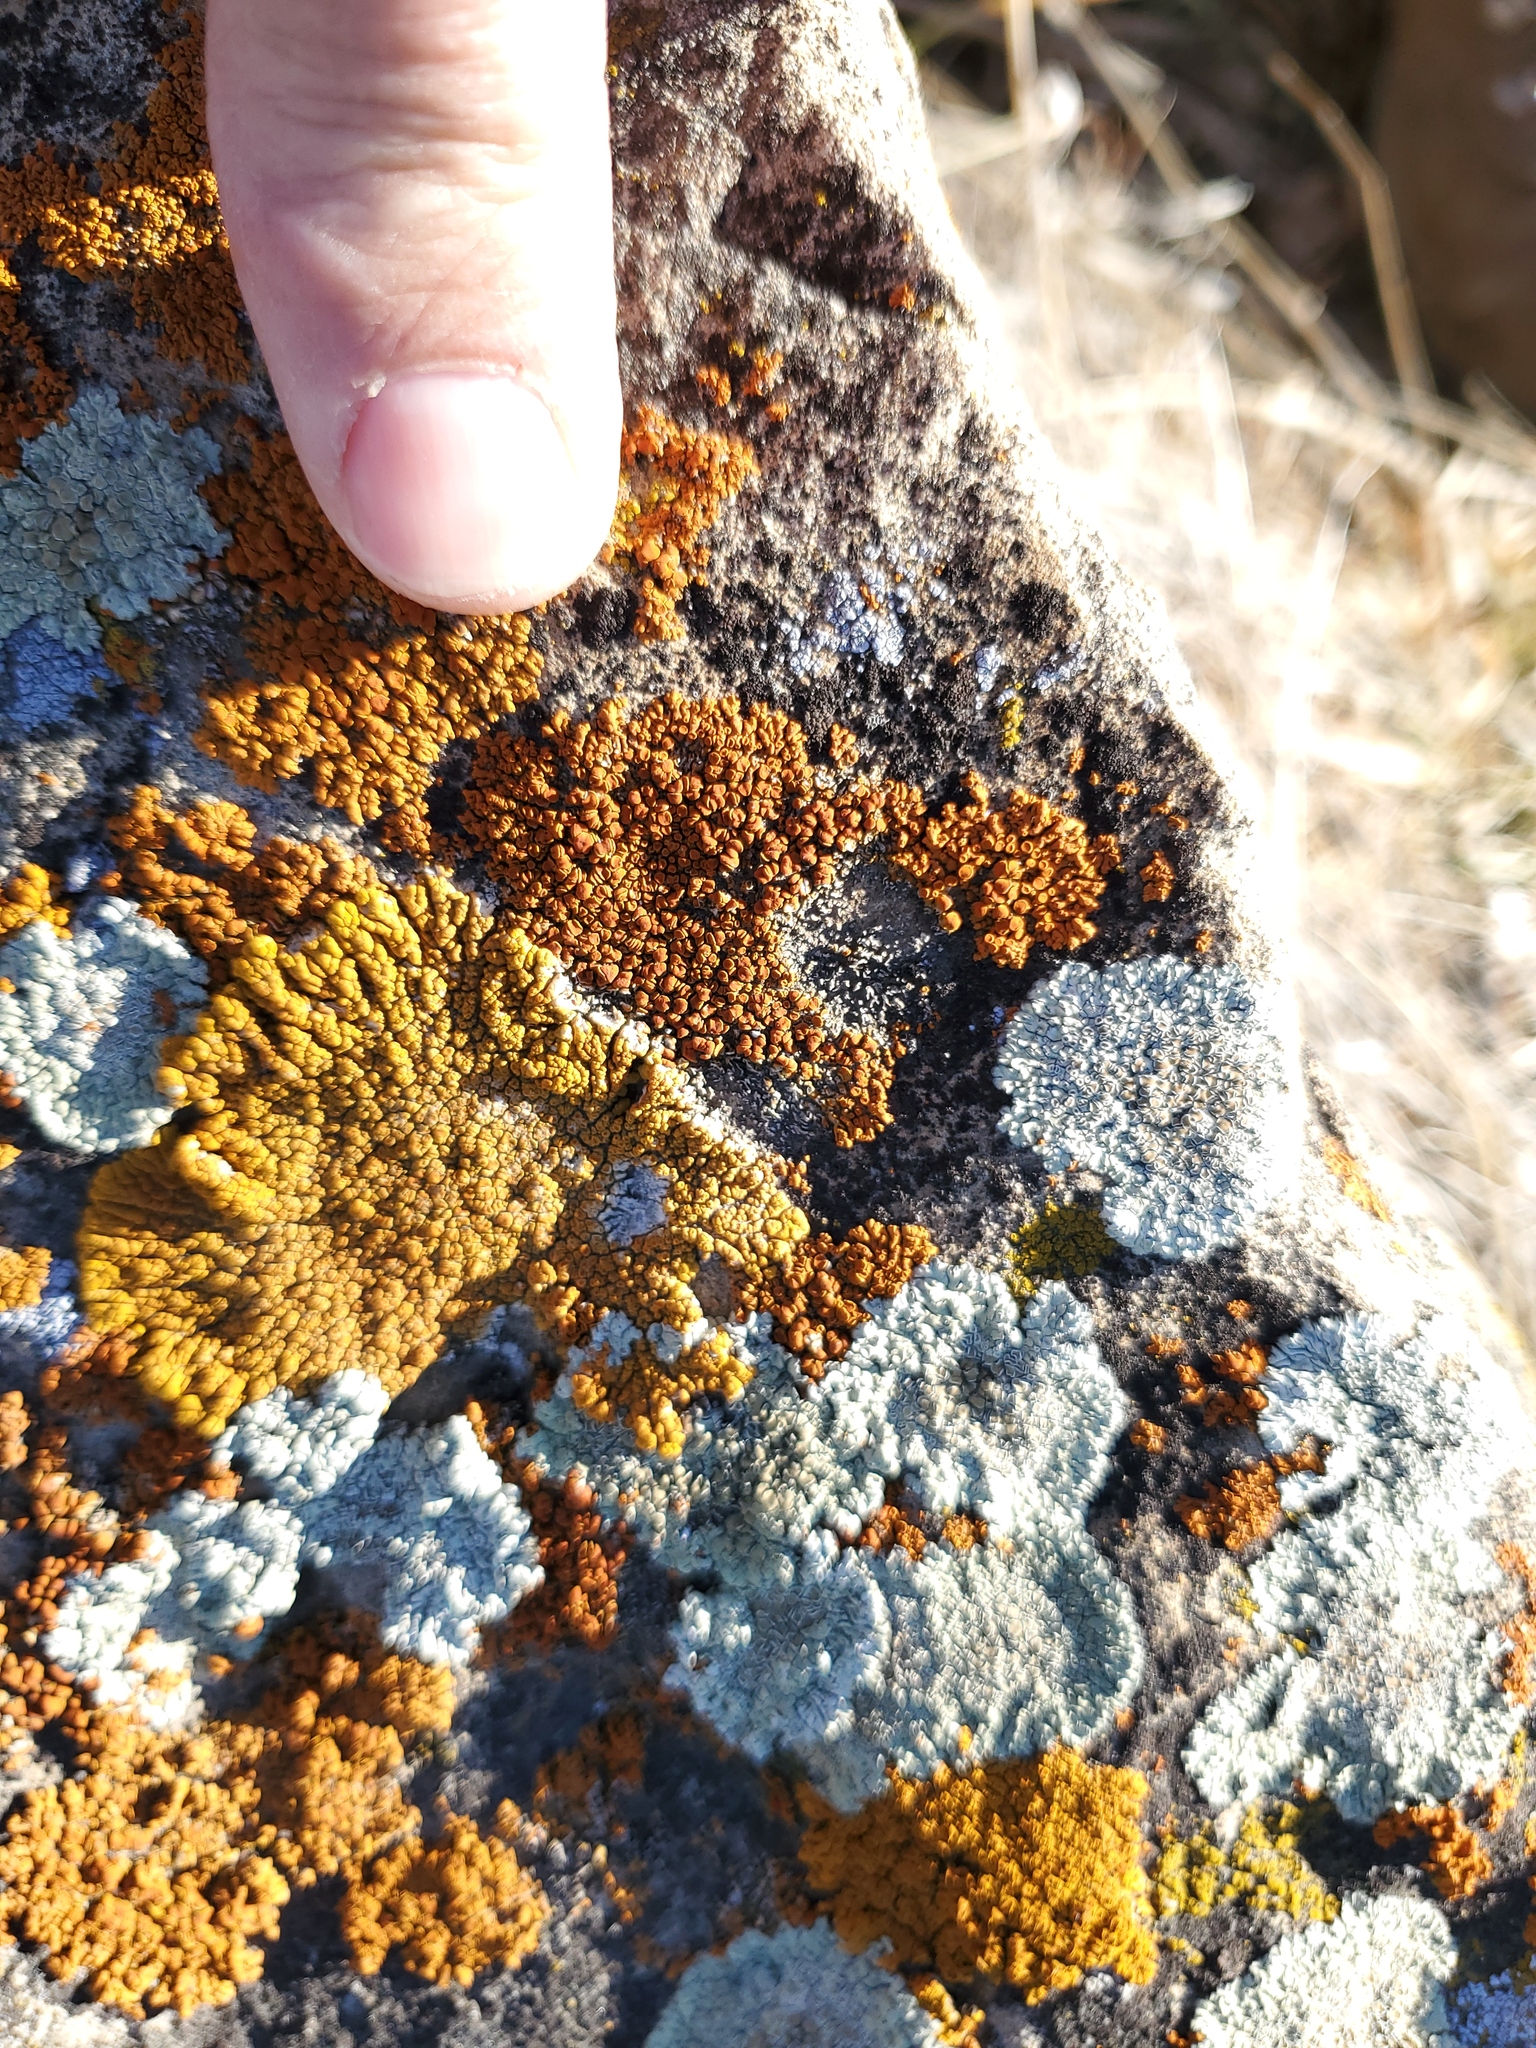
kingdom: Fungi
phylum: Ascomycota
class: Lecanoromycetes
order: Teloschistales
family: Teloschistaceae
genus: Xanthoria
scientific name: Xanthoria elegans
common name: Elegant sunburst lichen
